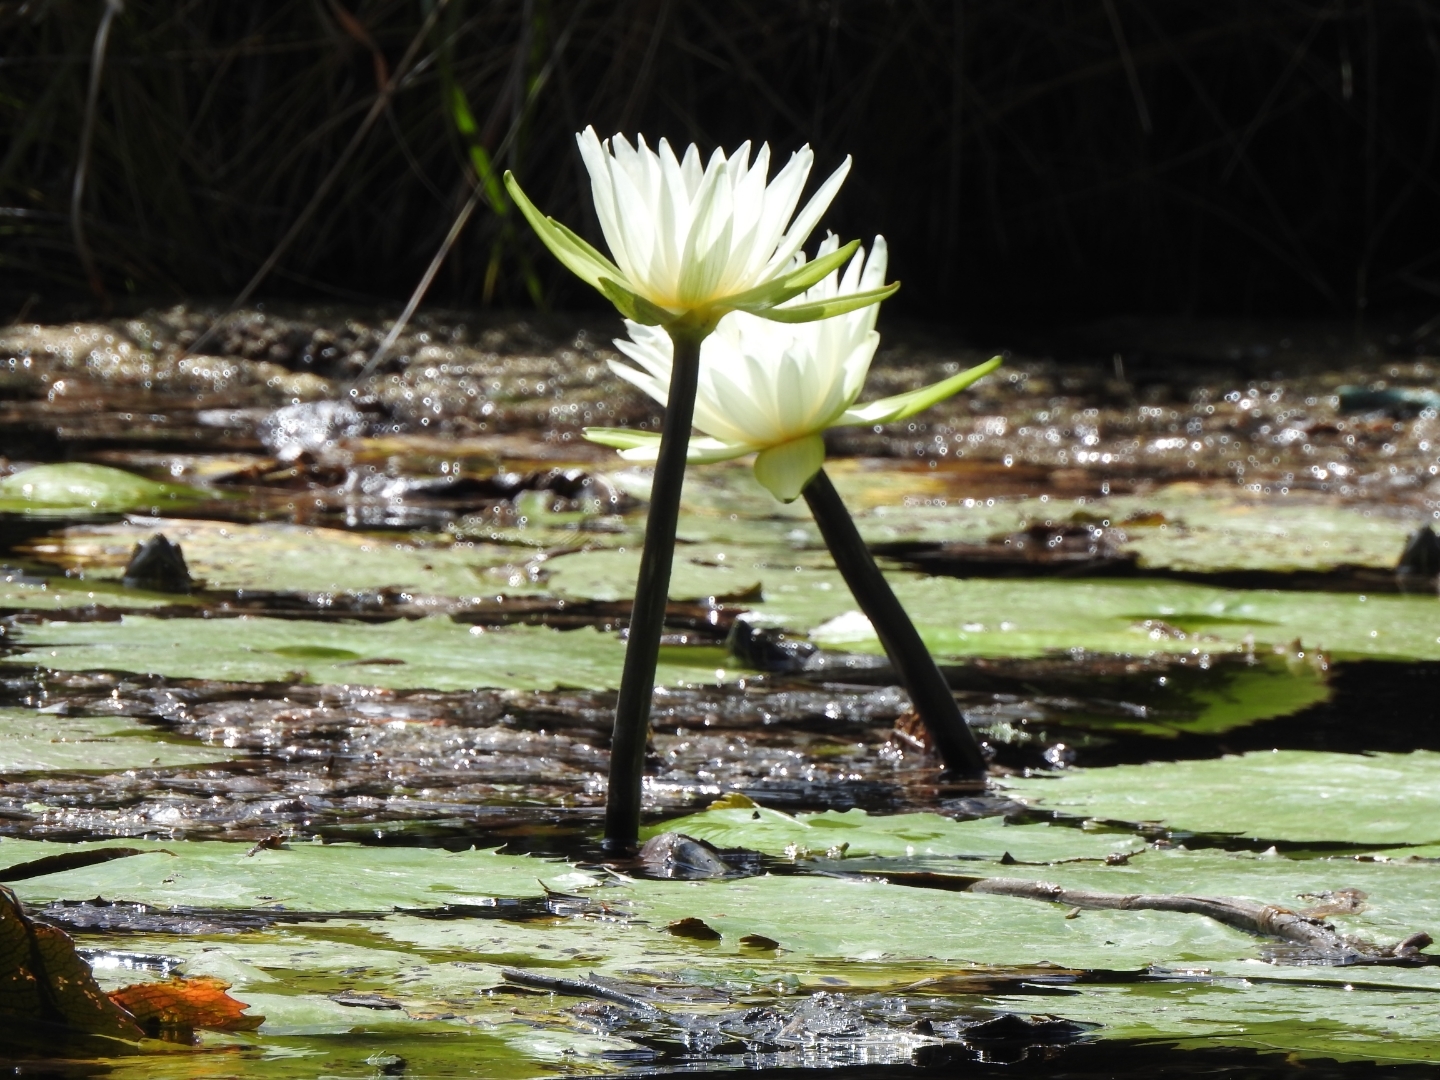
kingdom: Plantae
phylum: Tracheophyta
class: Magnoliopsida
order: Nymphaeales
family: Nymphaeaceae
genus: Nymphaea
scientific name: Nymphaea ampla
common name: Dotleaf waterlily
